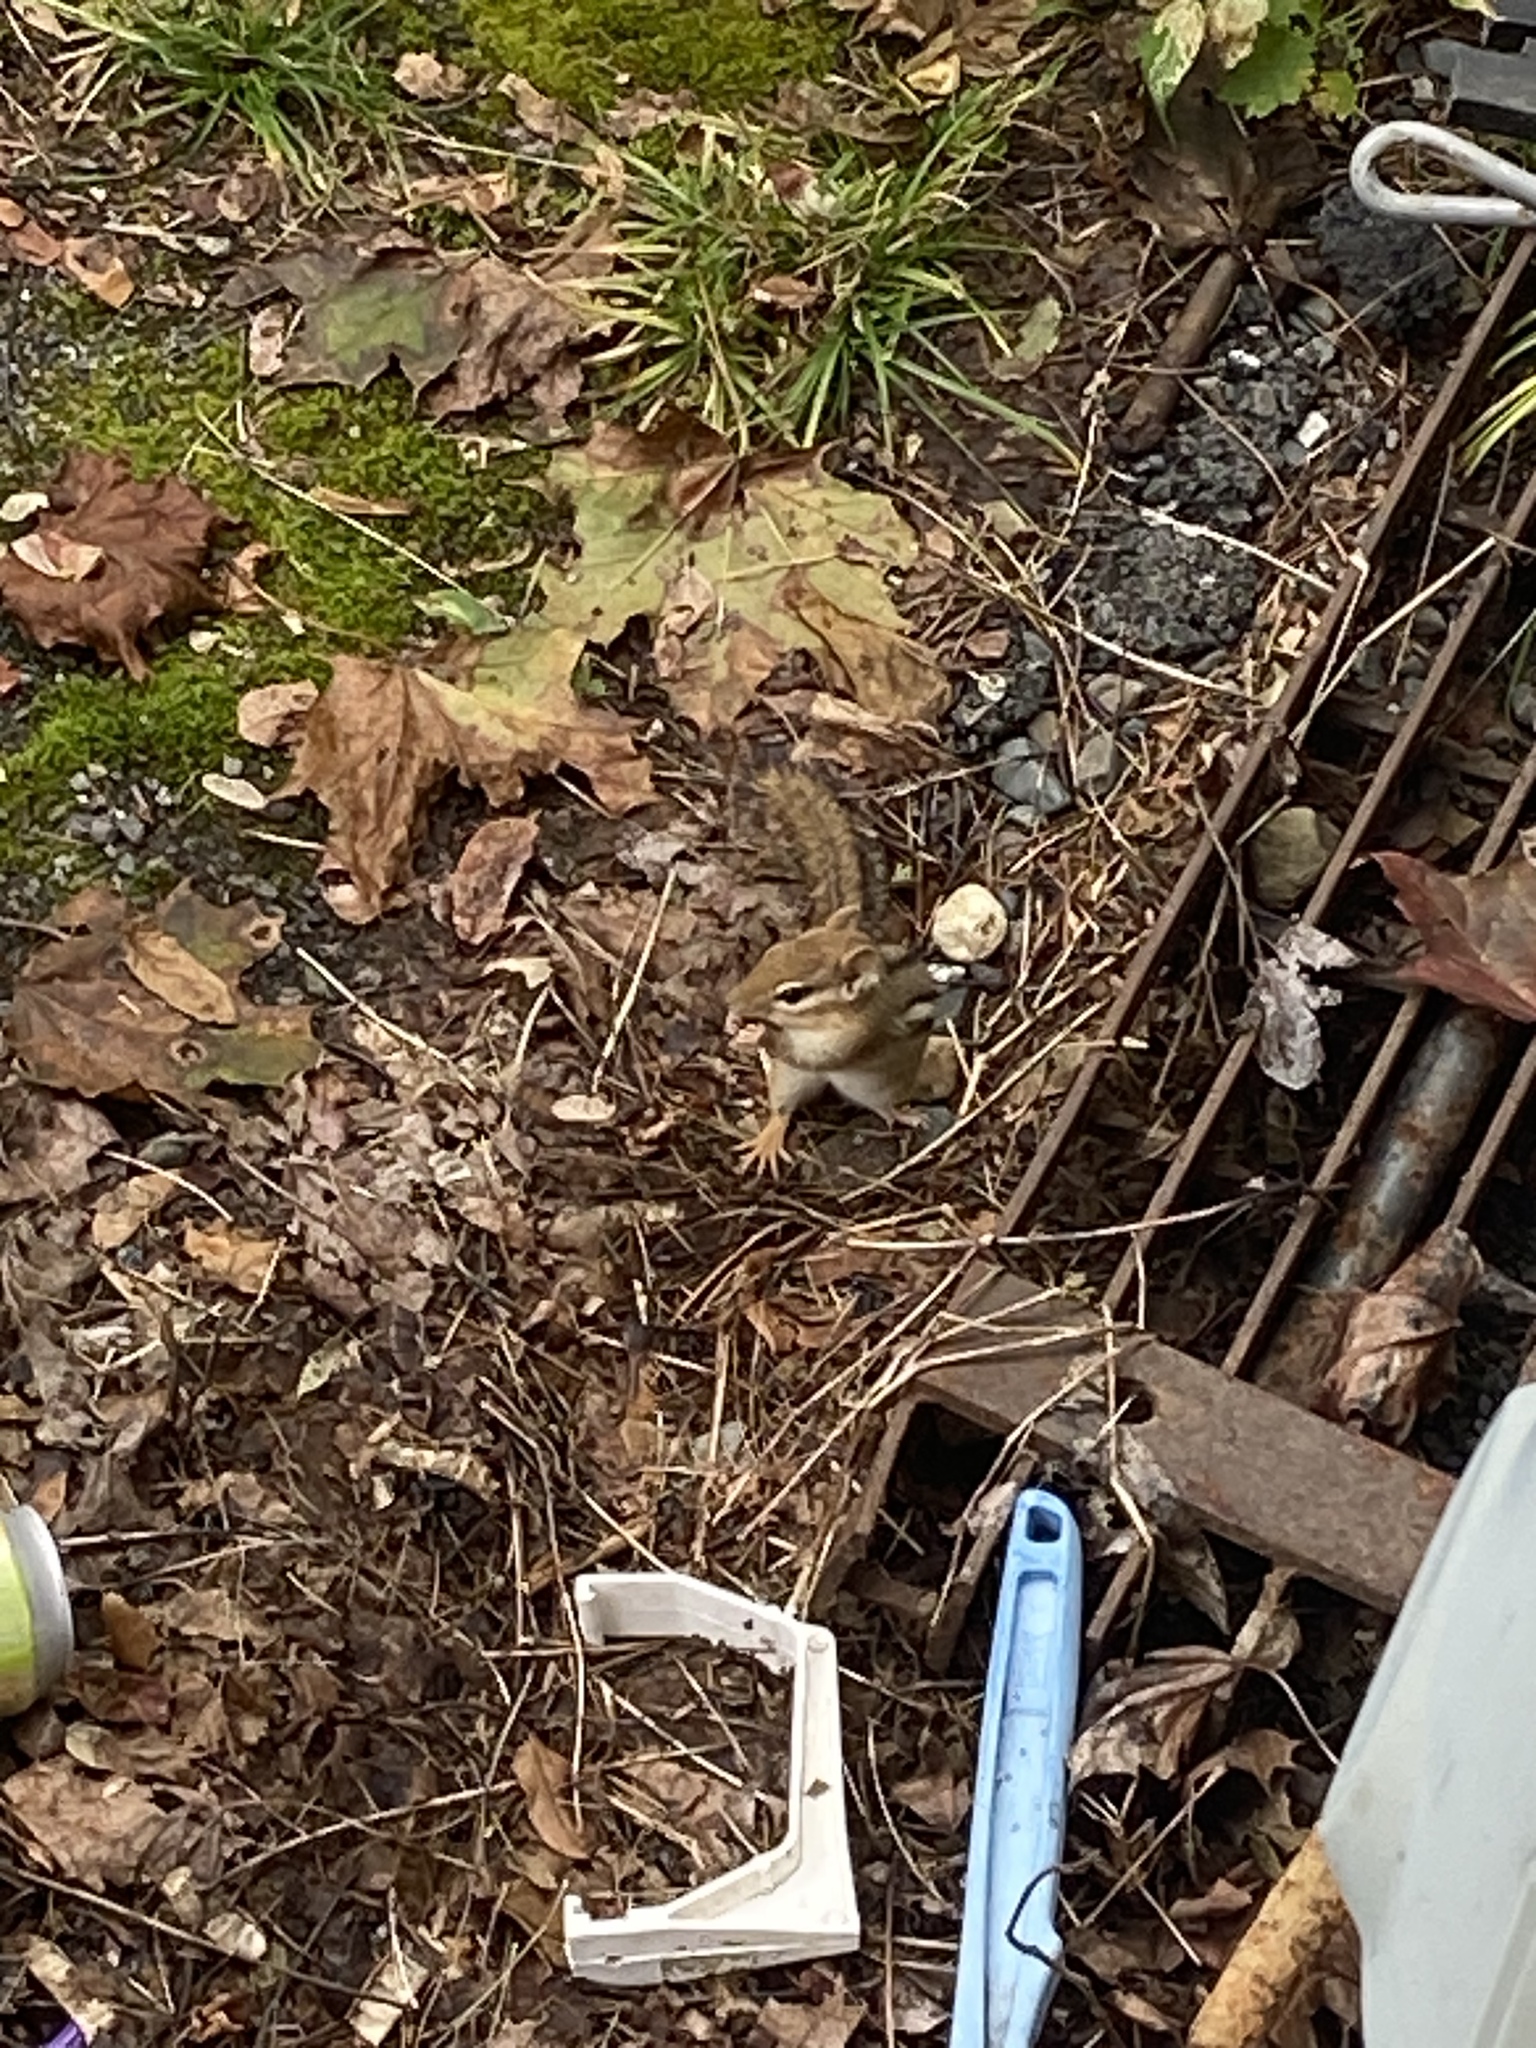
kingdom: Animalia
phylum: Chordata
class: Mammalia
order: Rodentia
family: Sciuridae
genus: Tamias
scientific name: Tamias striatus
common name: Eastern chipmunk
